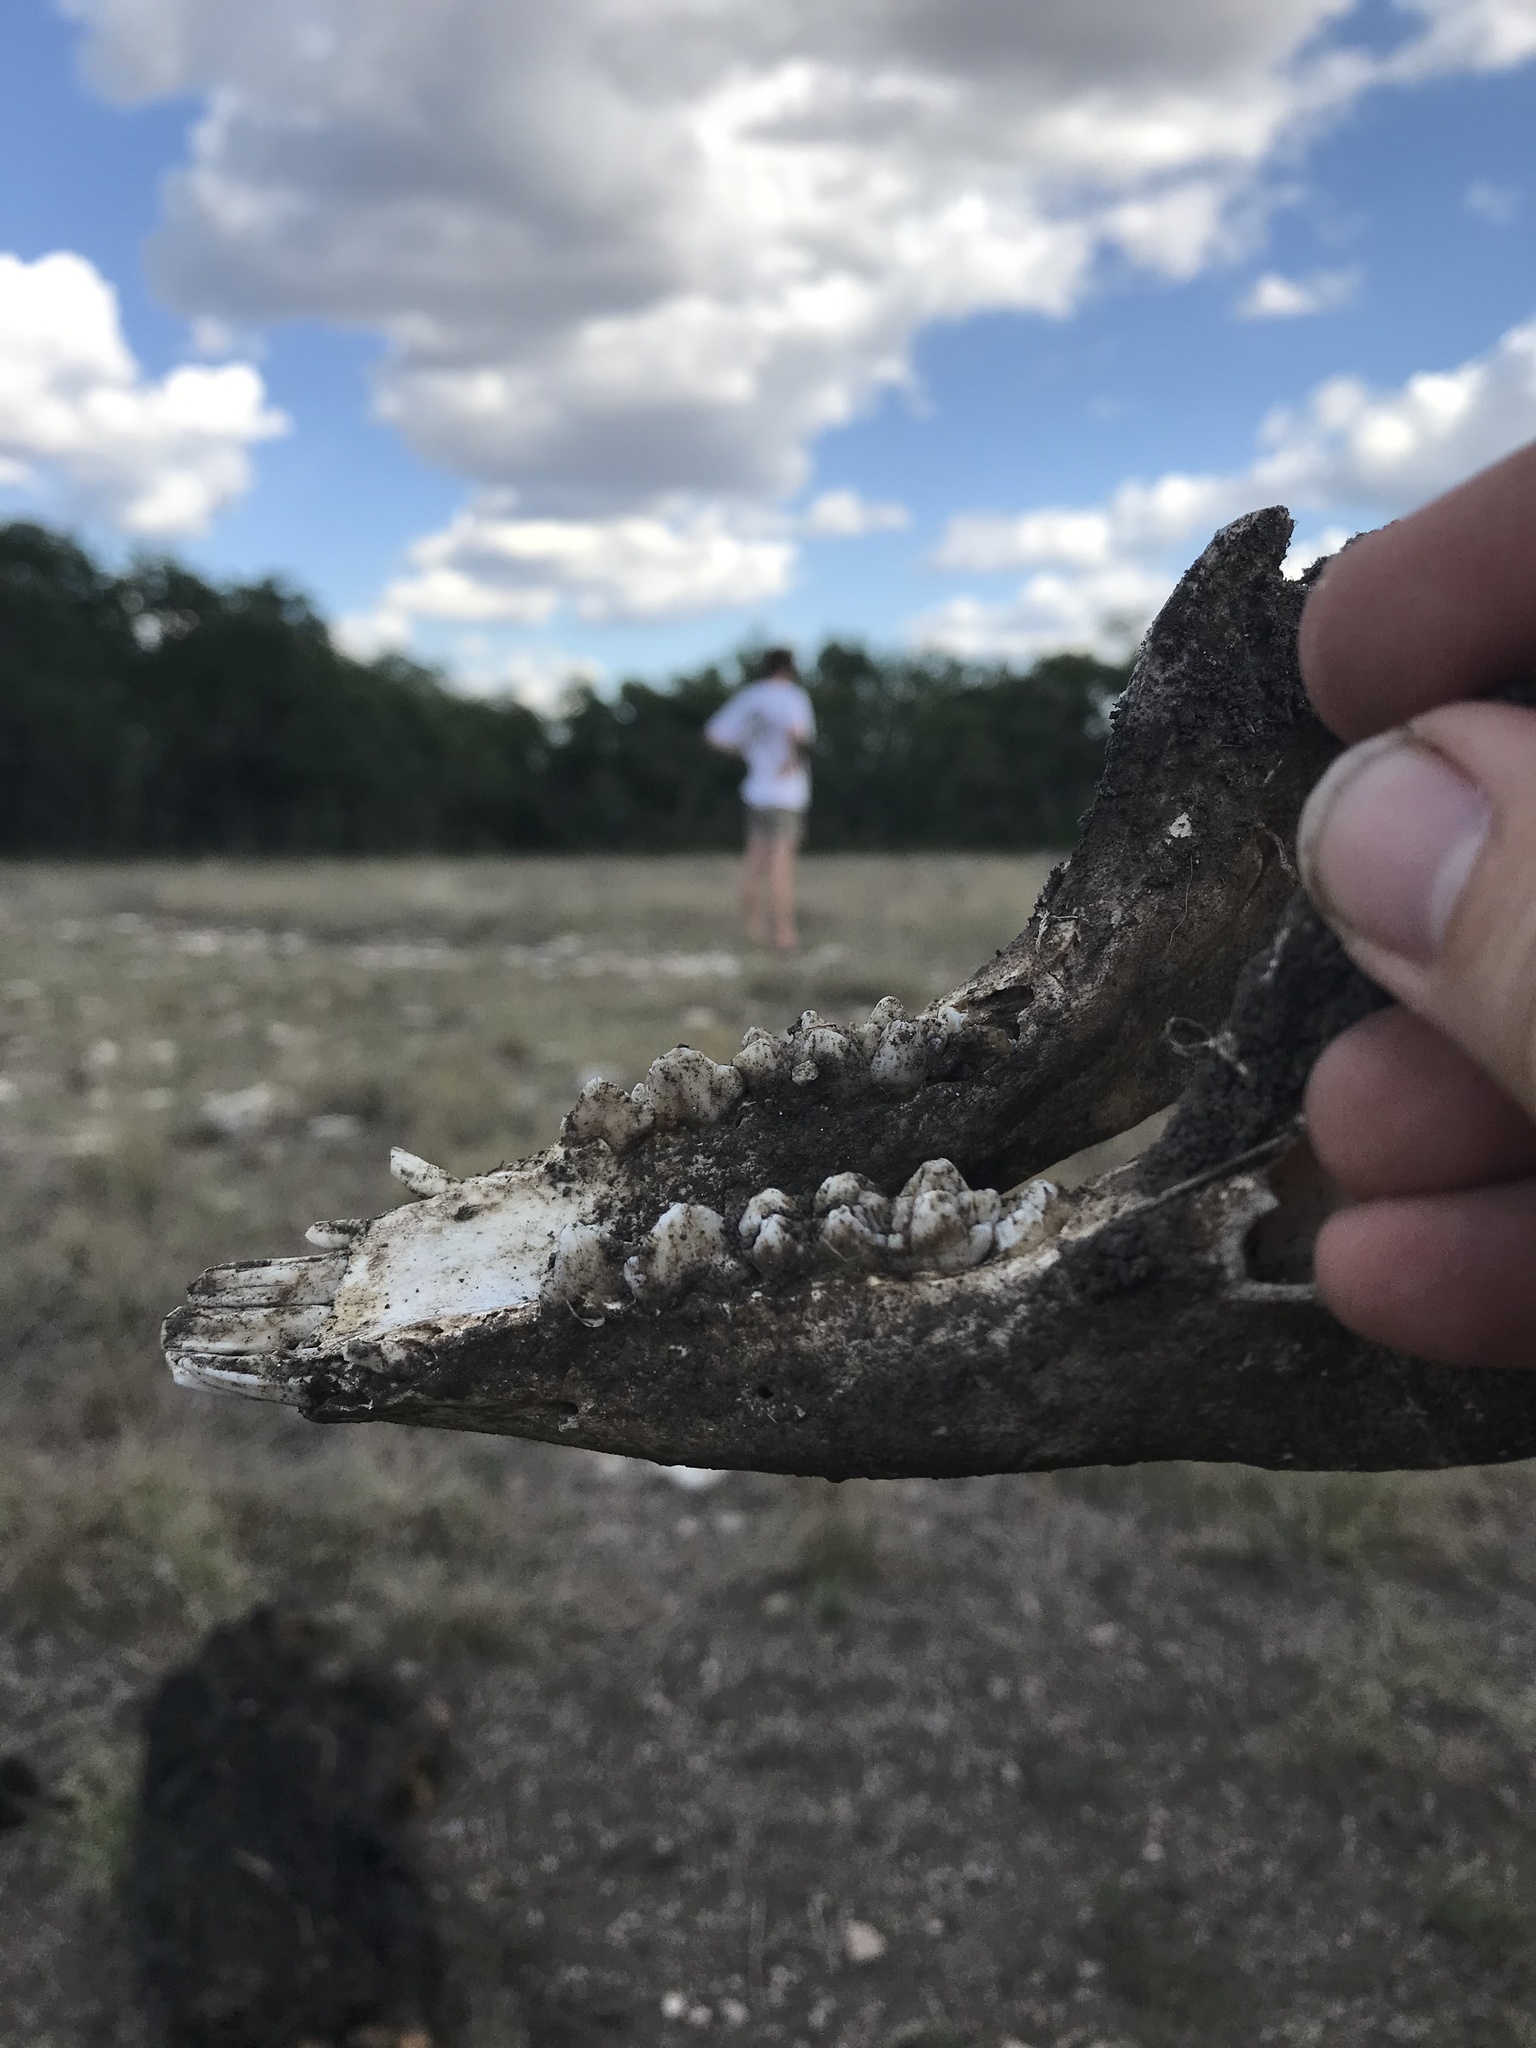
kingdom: Animalia
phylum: Chordata
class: Mammalia
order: Artiodactyla
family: Suidae
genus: Sus
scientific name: Sus scrofa
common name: Wild boar
